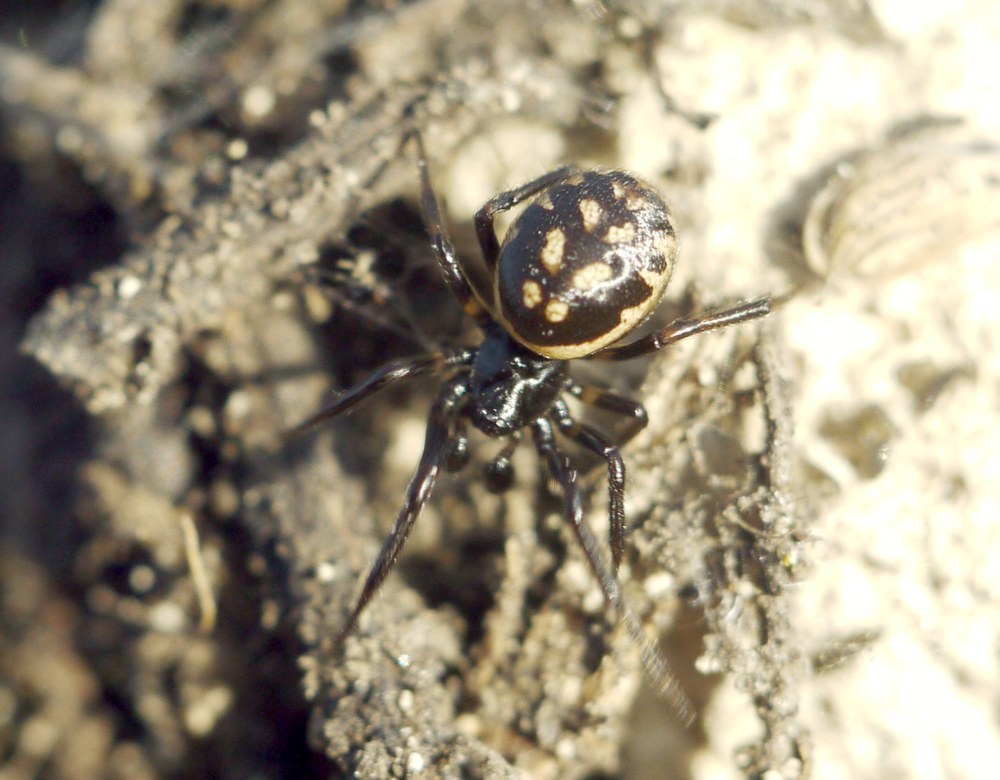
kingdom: Animalia
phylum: Arthropoda
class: Arachnida
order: Araneae
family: Theridiidae
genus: Steatoda
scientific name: Steatoda albomaculata
